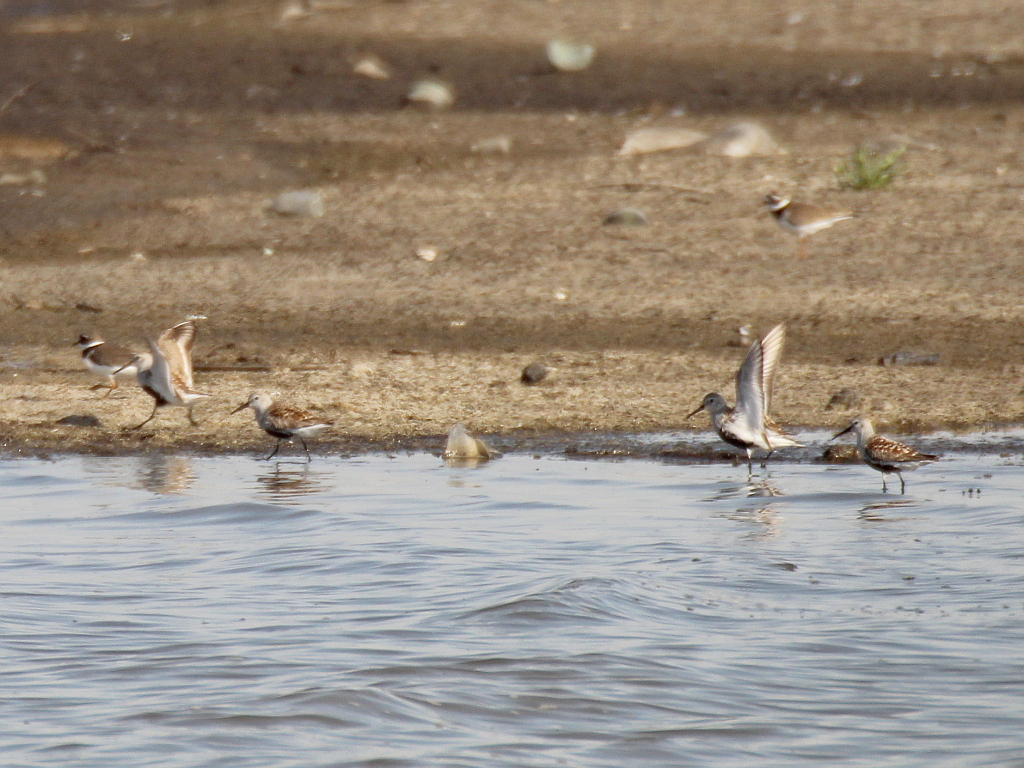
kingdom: Animalia
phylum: Chordata
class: Aves
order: Charadriiformes
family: Scolopacidae
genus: Calidris
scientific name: Calidris alpina
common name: Dunlin
